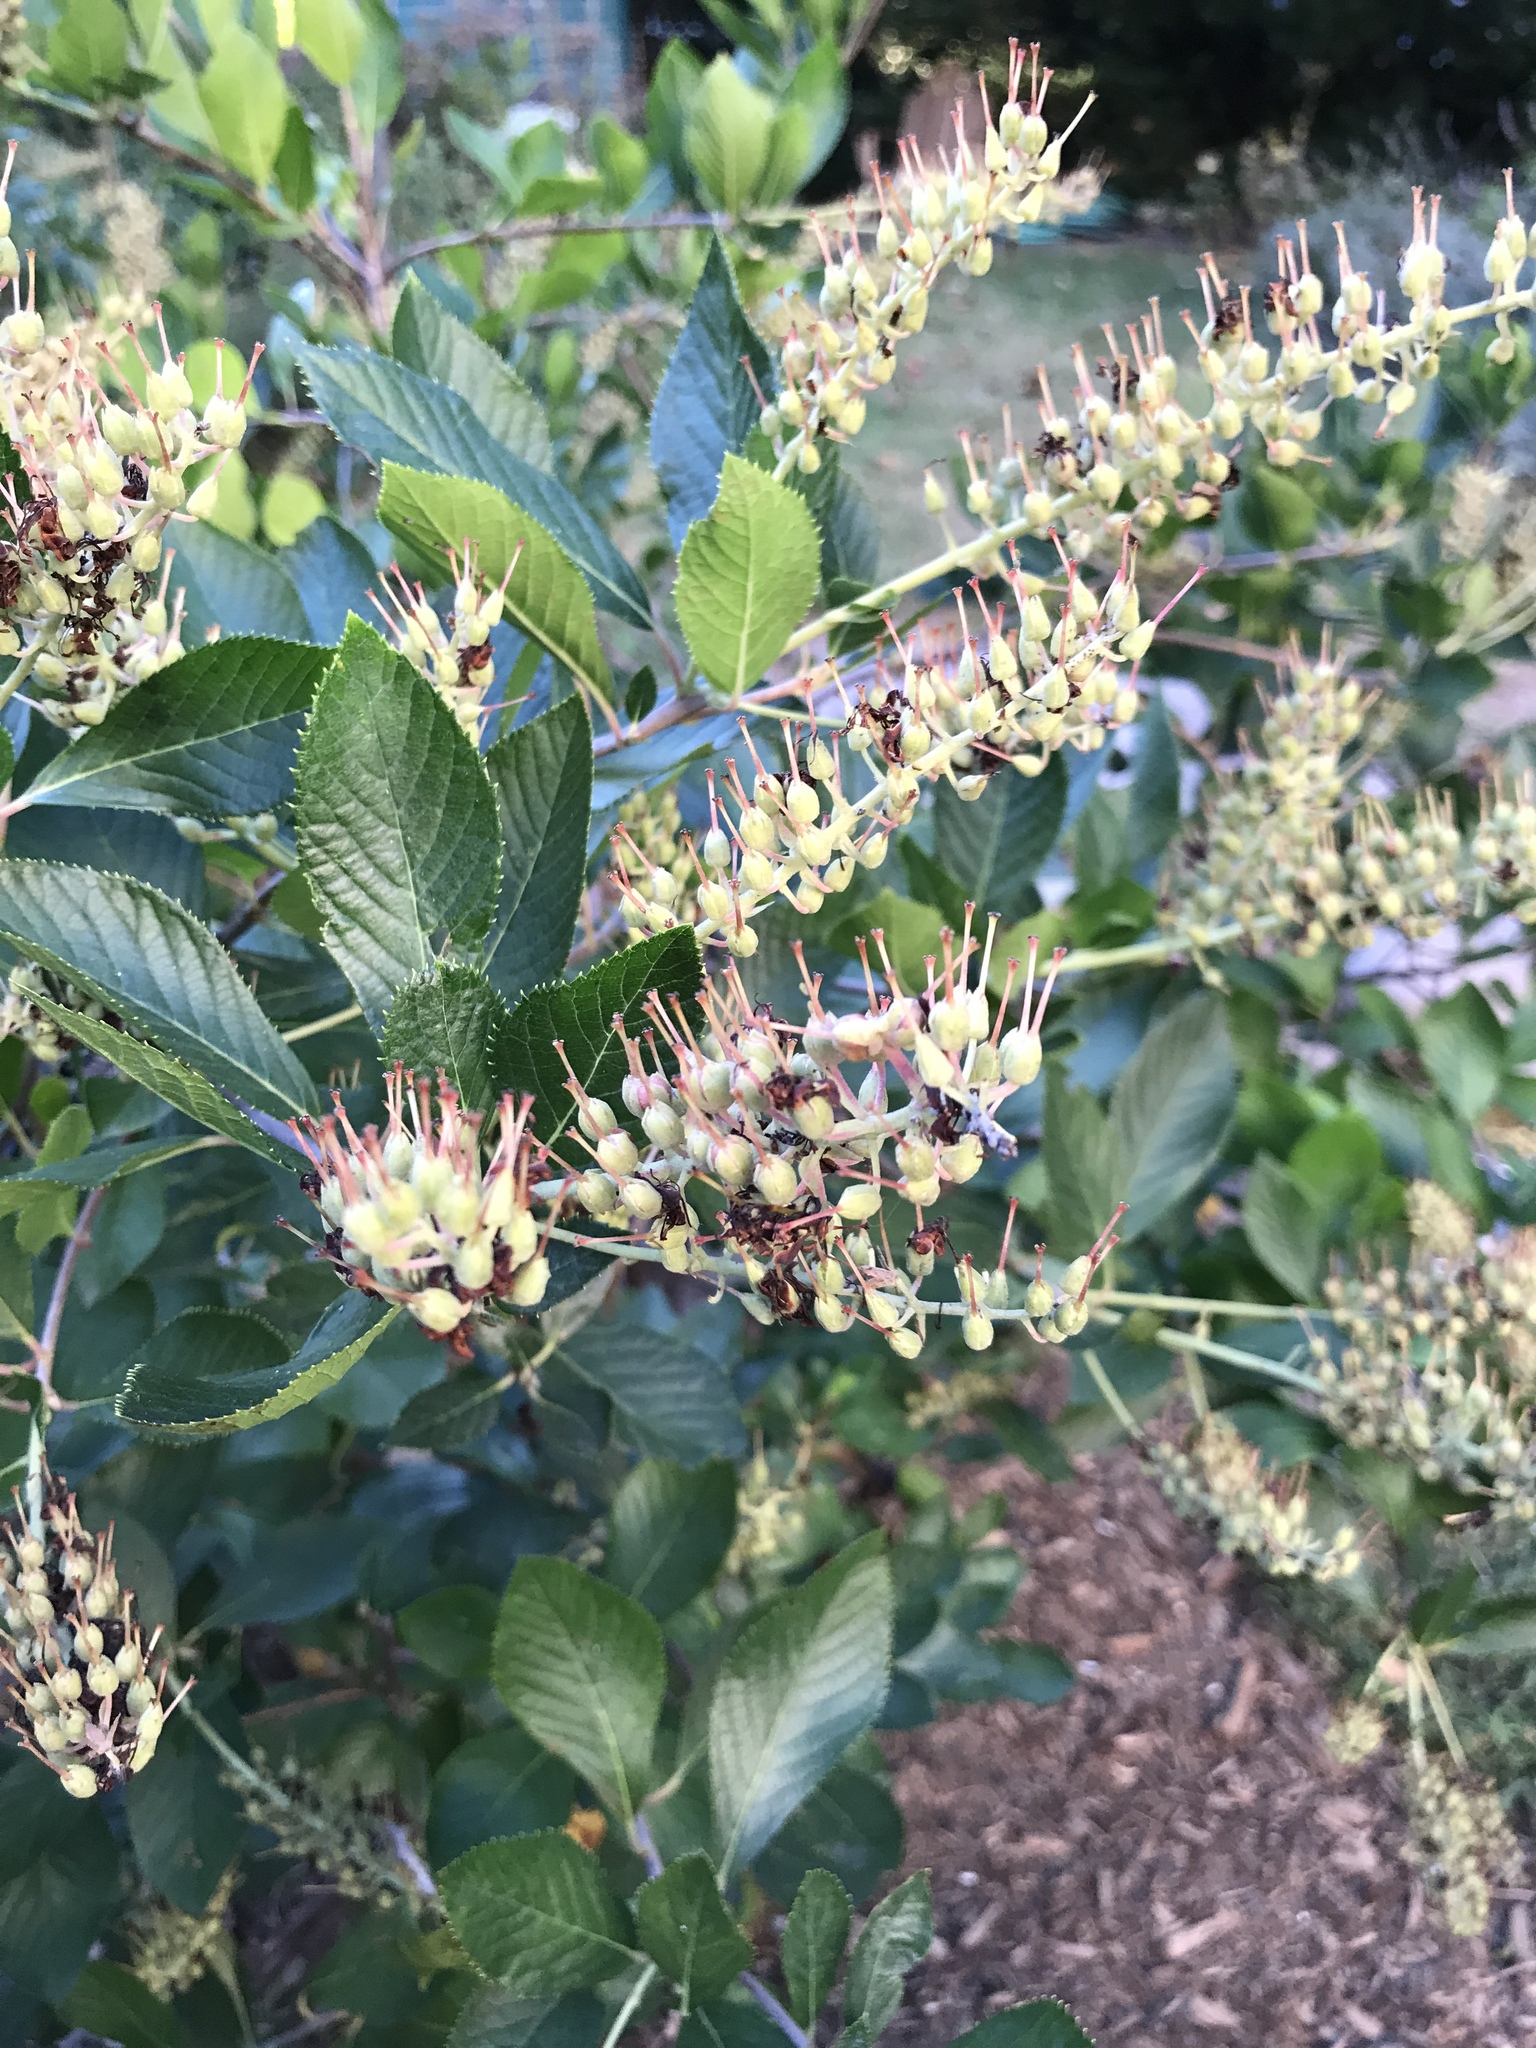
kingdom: Plantae
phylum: Tracheophyta
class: Magnoliopsida
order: Ericales
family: Clethraceae
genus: Clethra
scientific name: Clethra alnifolia
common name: Sweet pepperbush
